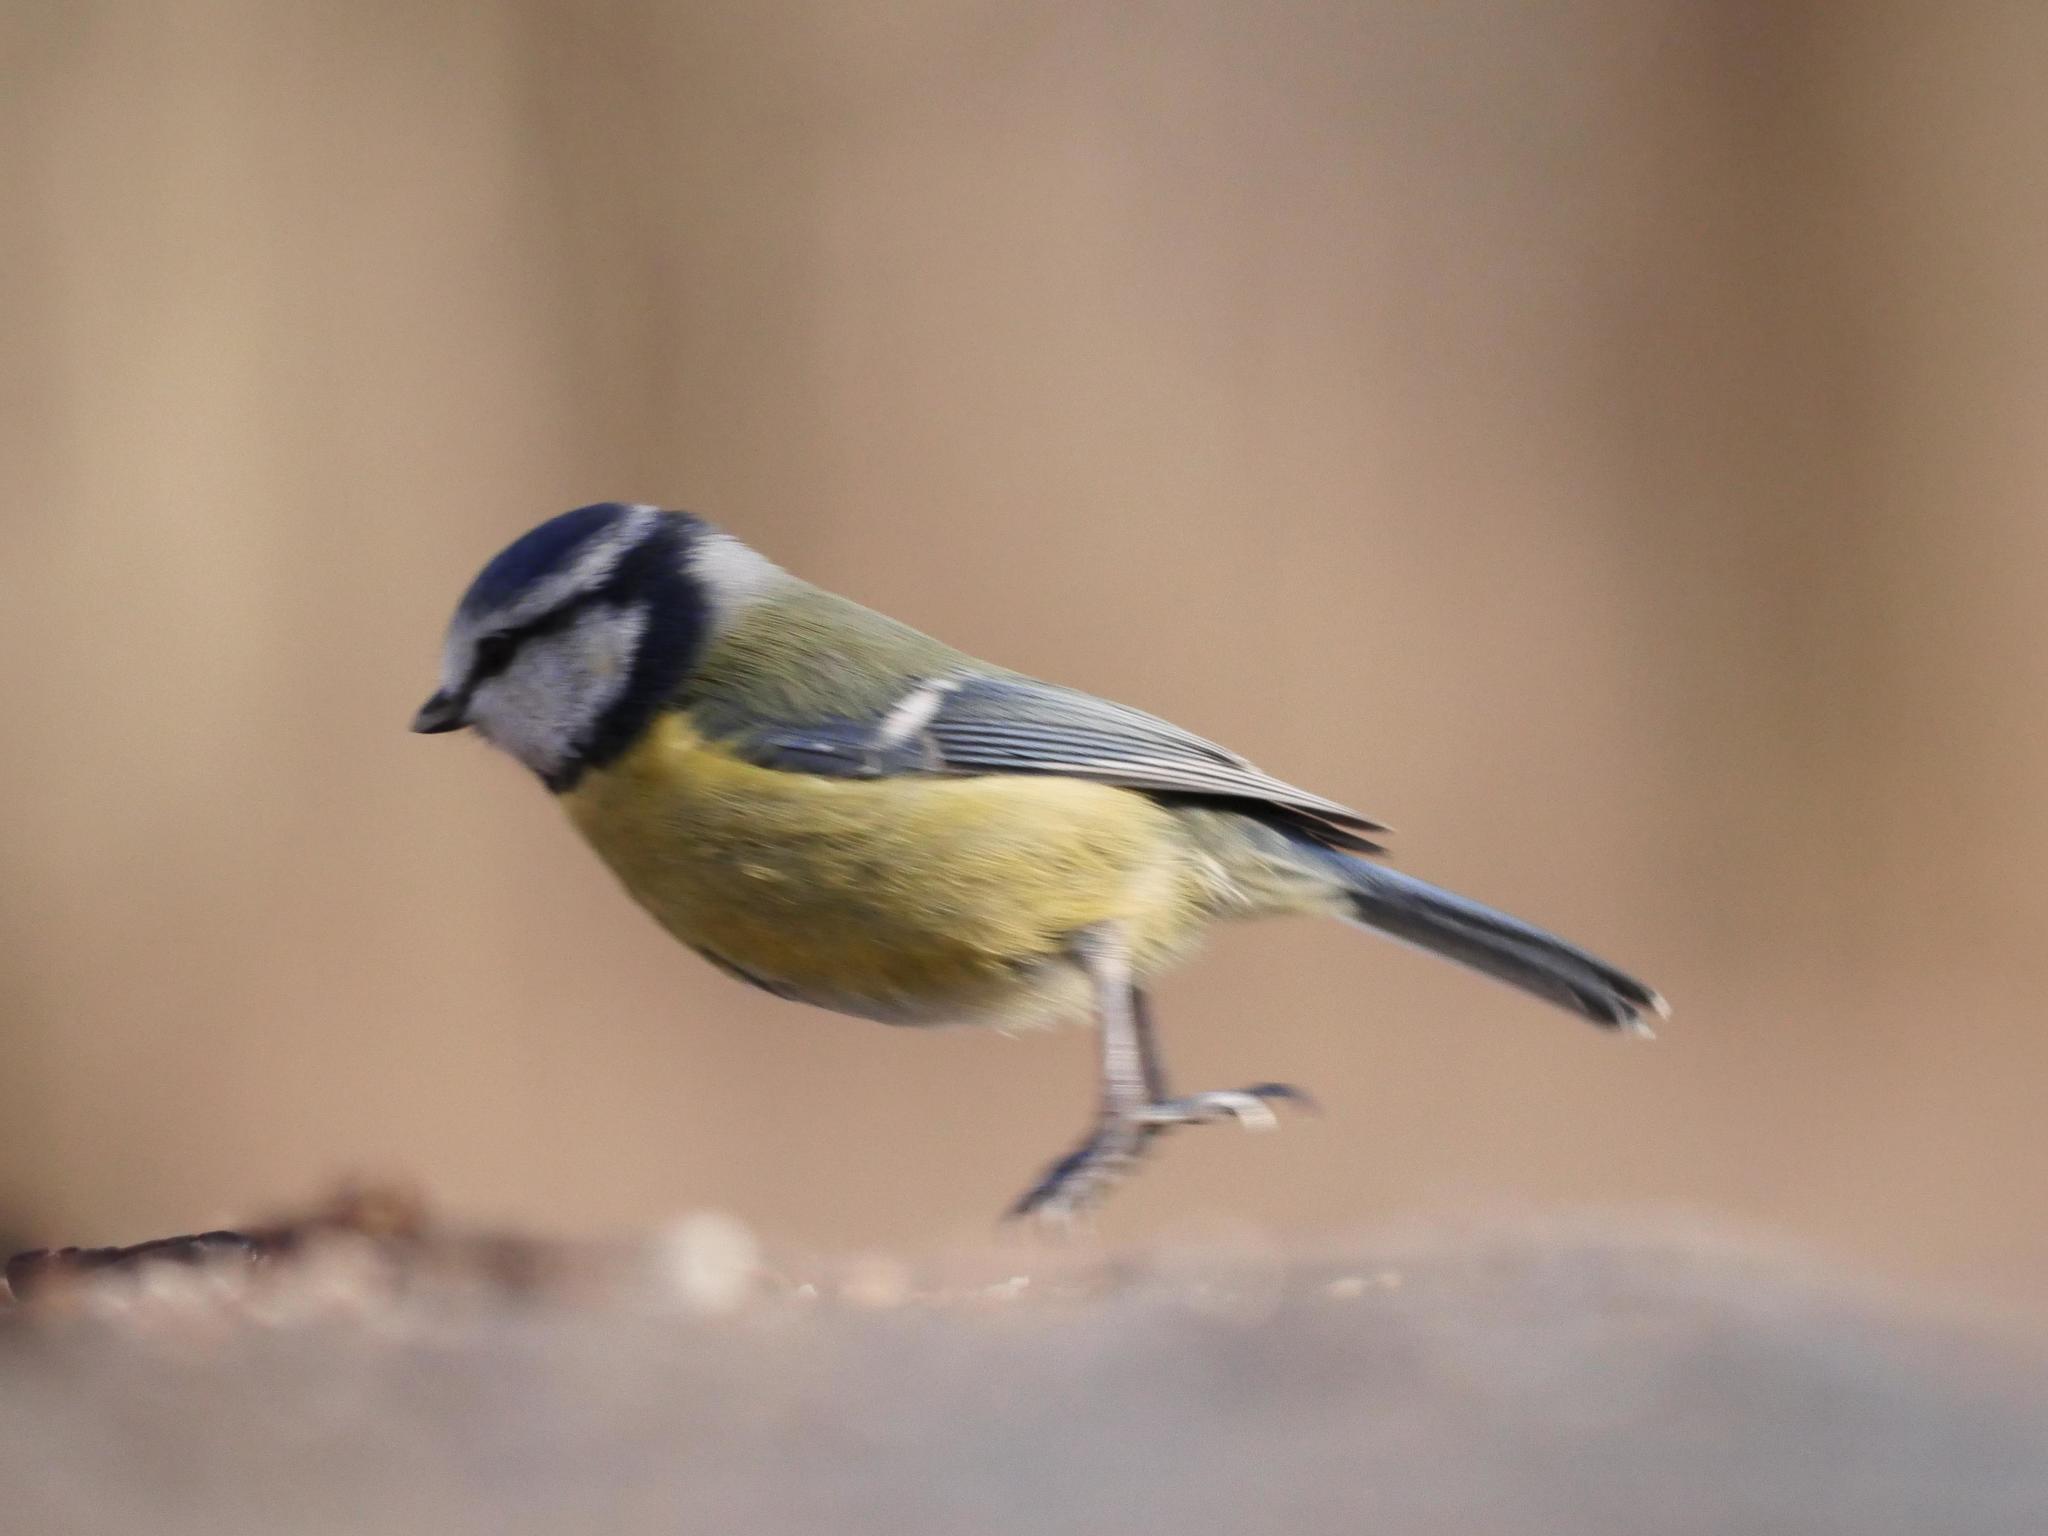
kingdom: Animalia
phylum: Chordata
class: Aves
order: Passeriformes
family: Paridae
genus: Cyanistes
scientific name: Cyanistes caeruleus
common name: Eurasian blue tit
